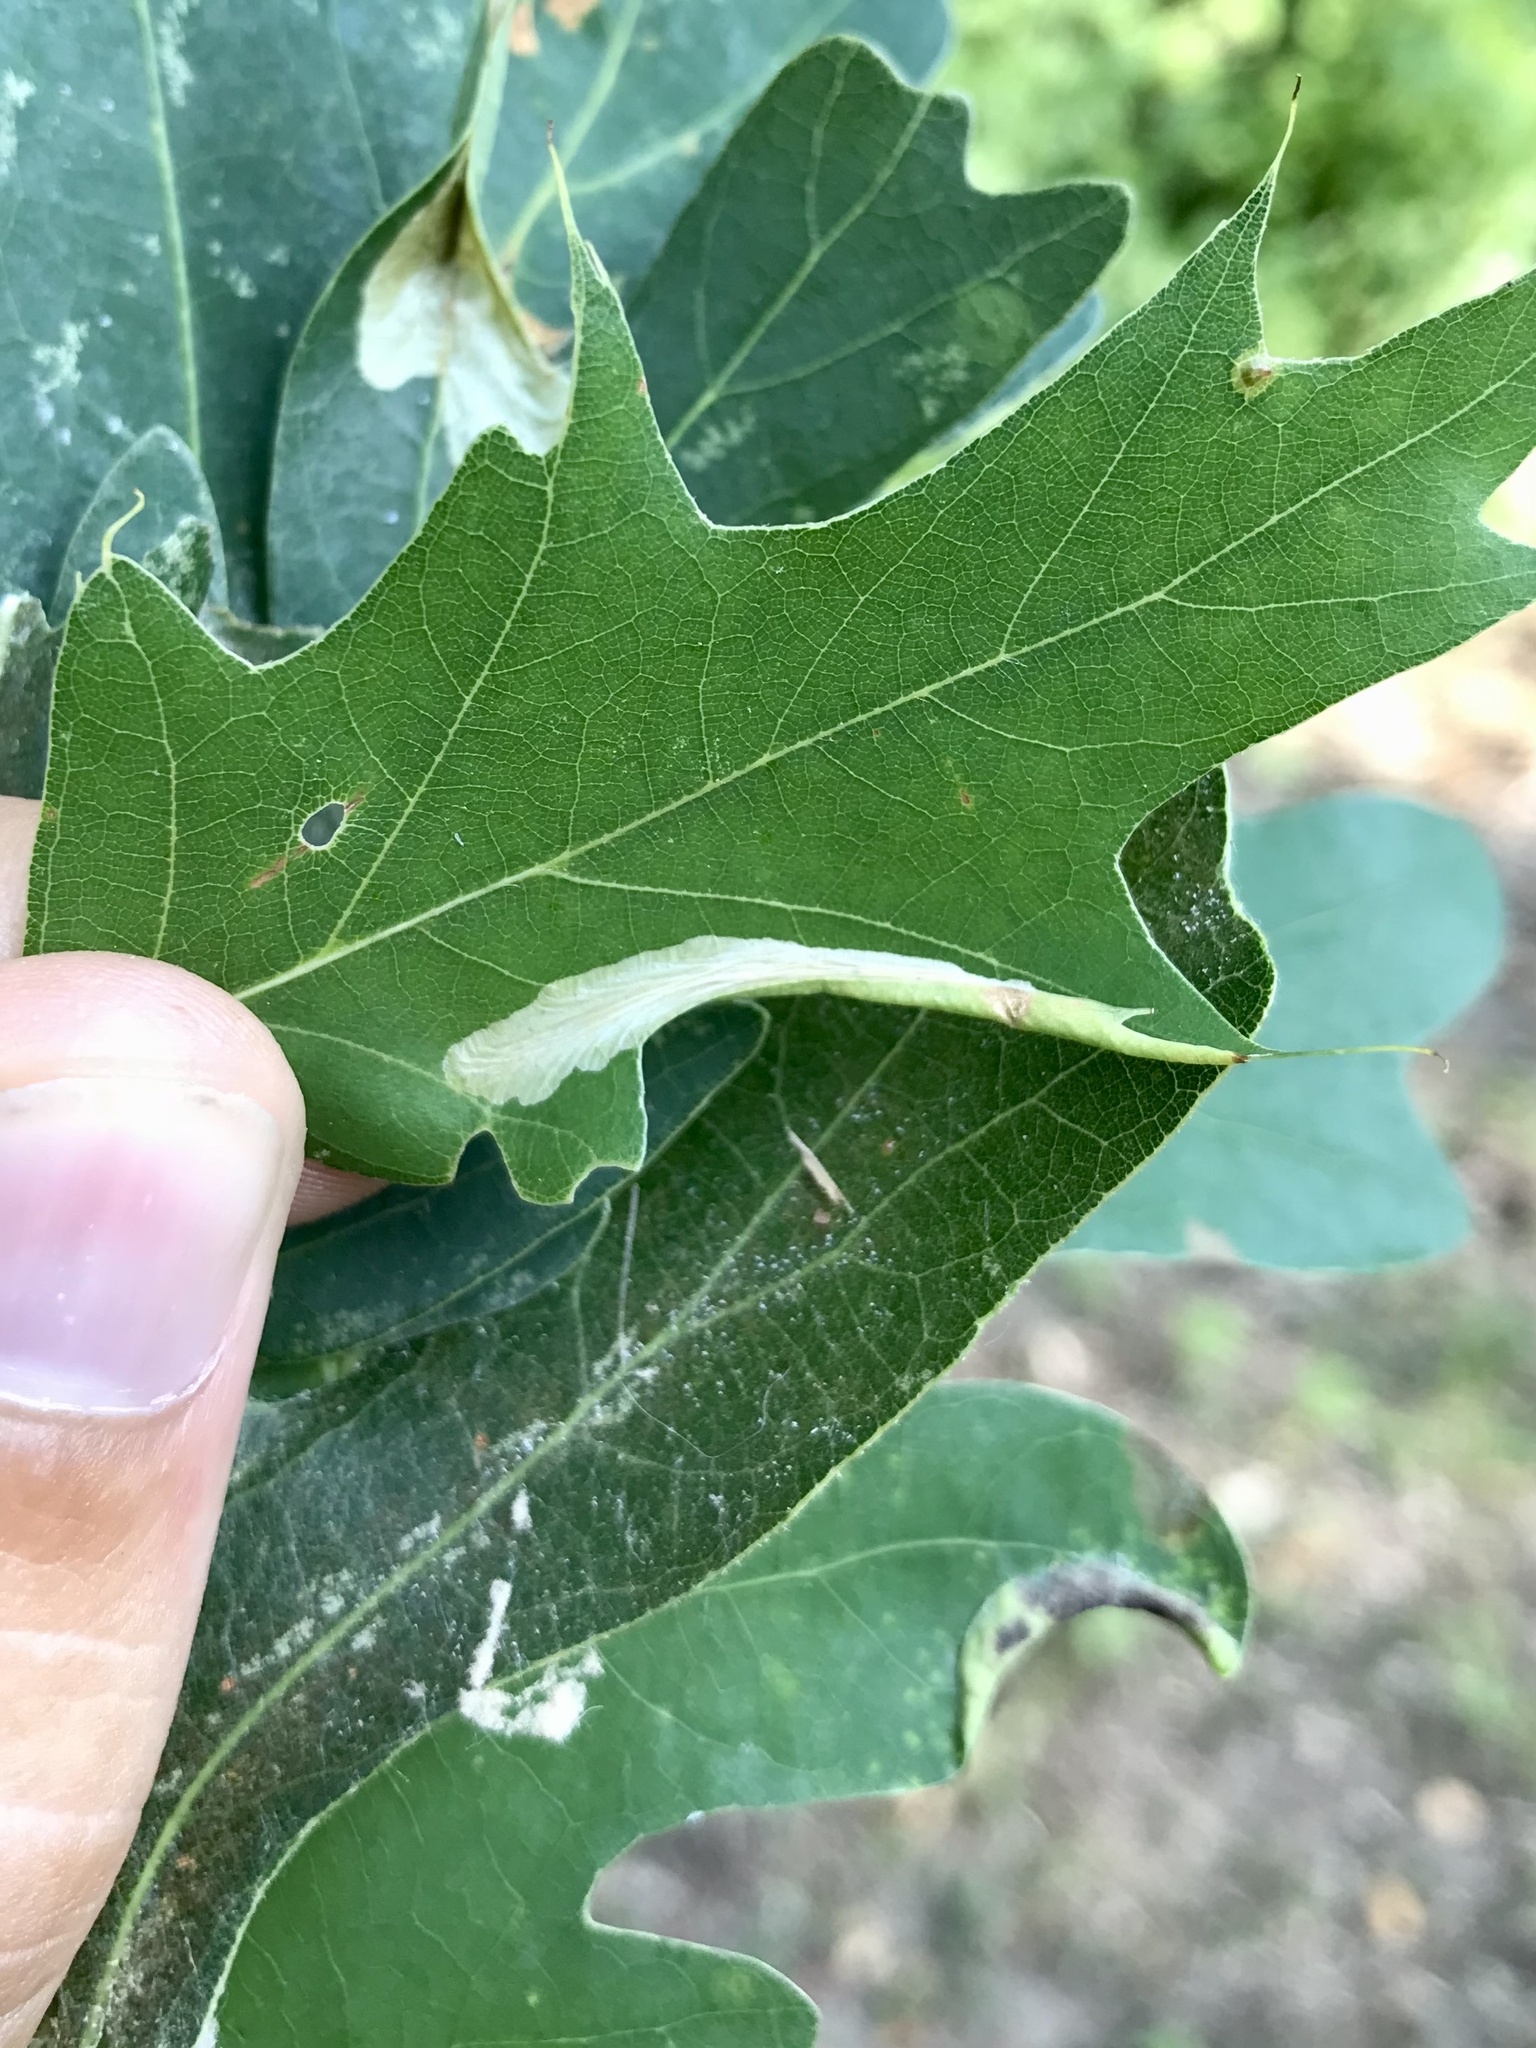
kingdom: Animalia
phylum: Arthropoda
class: Insecta
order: Lepidoptera
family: Tischeriidae
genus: Coptotriche
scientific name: Coptotriche citrinipennella
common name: The golden sweeper
